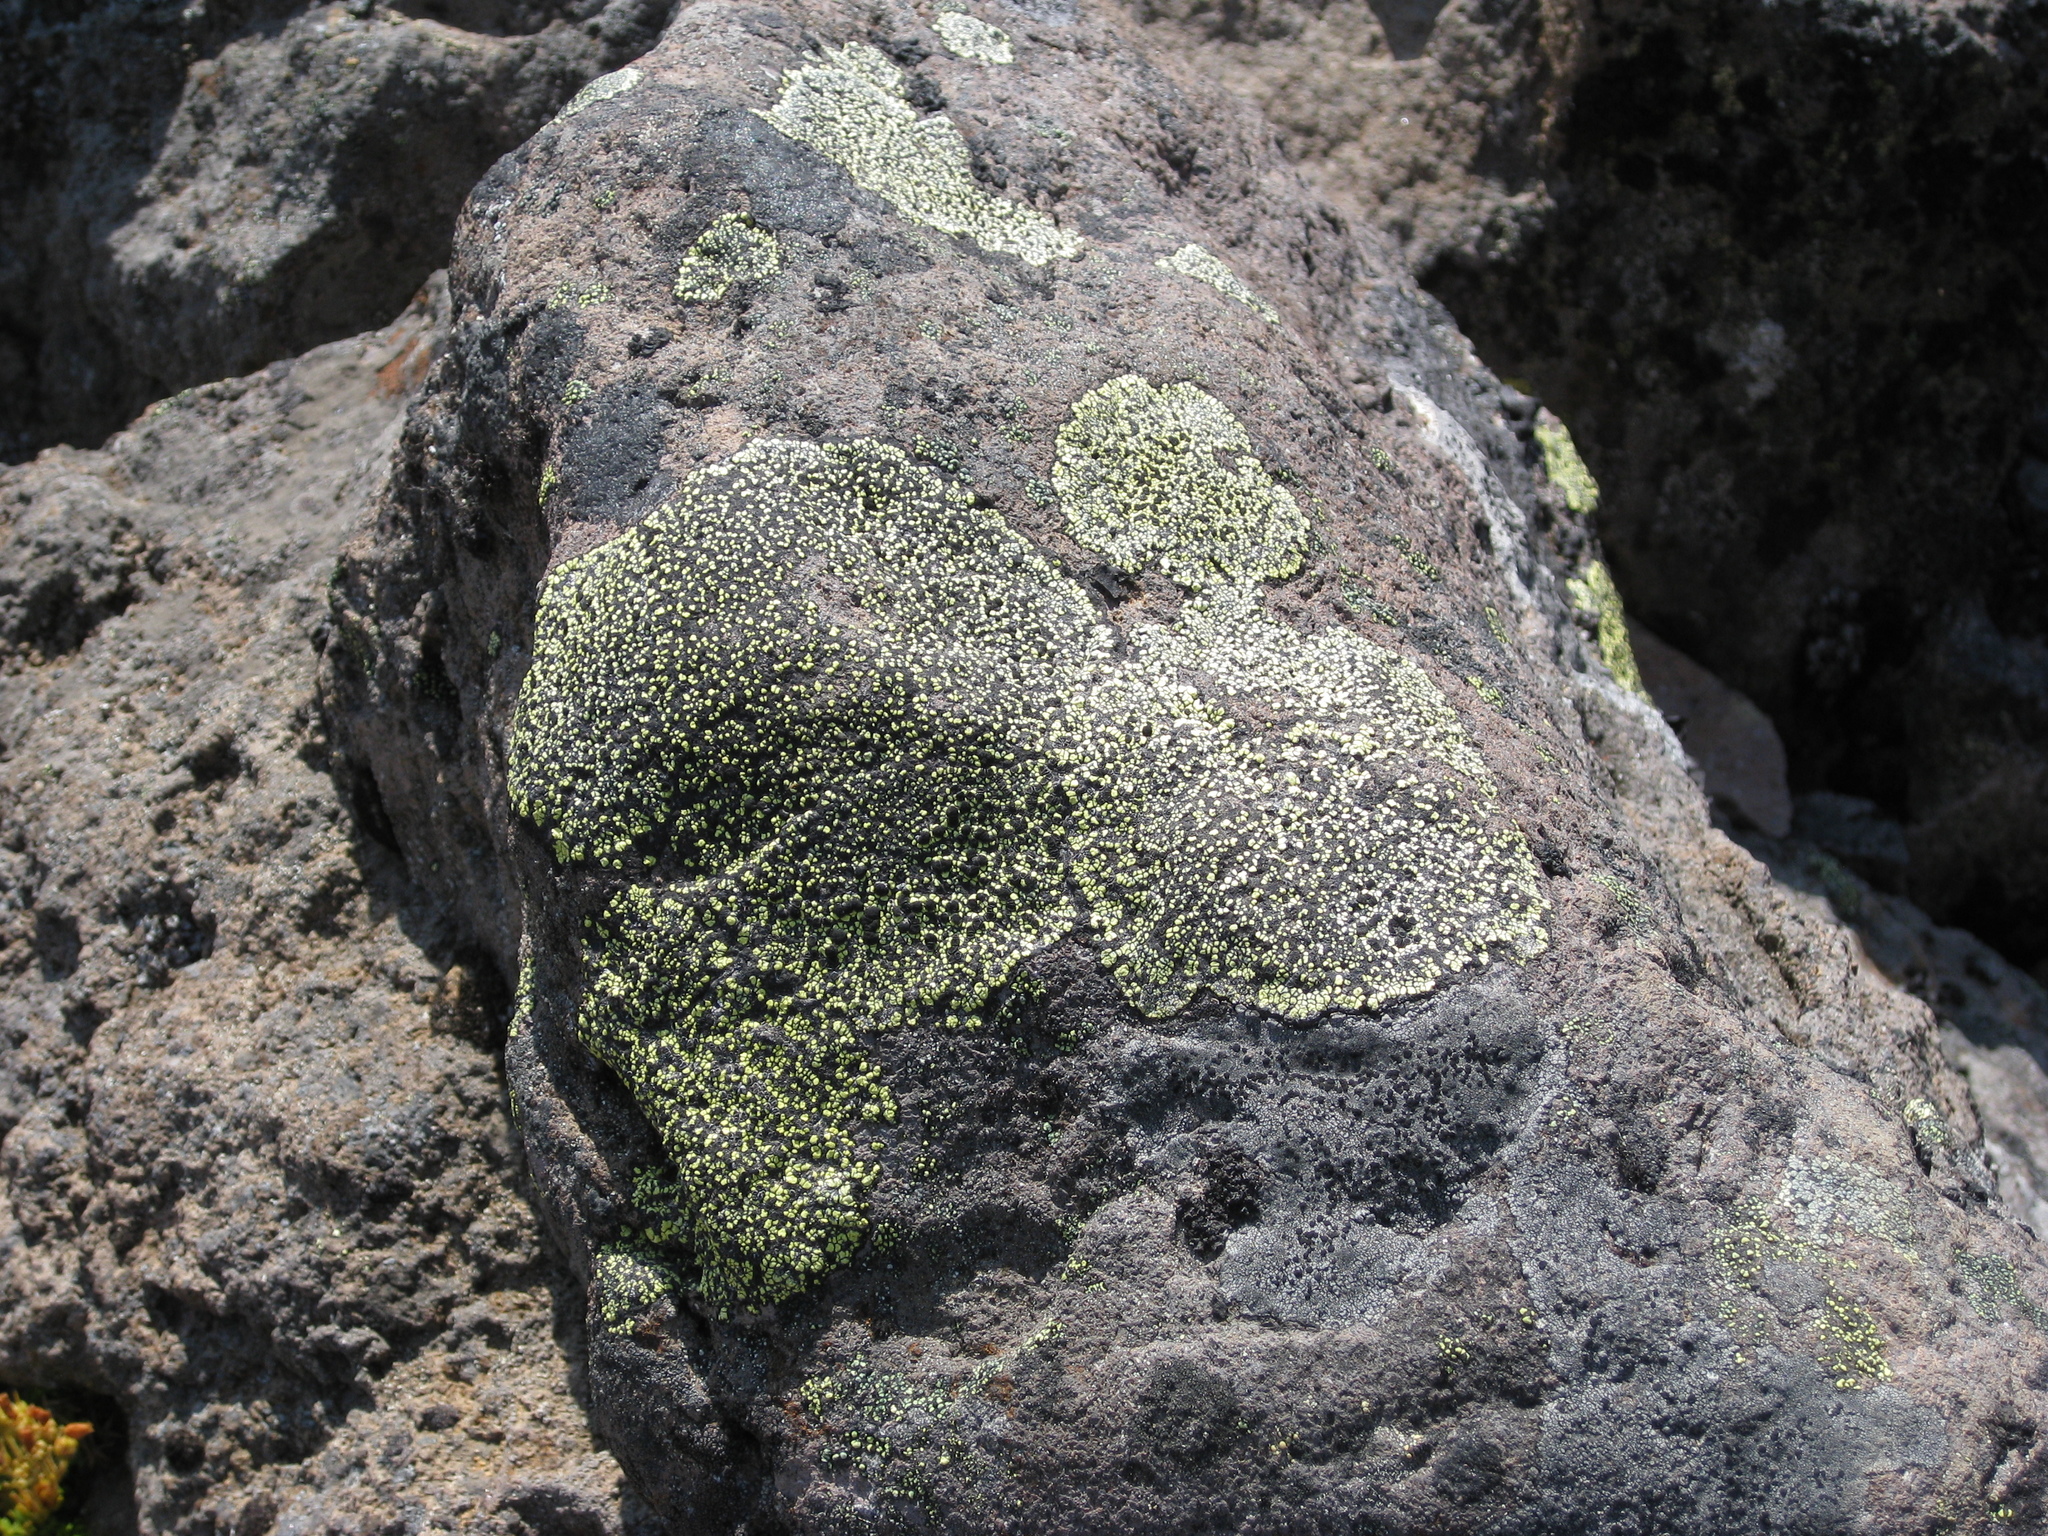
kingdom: Fungi
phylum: Ascomycota
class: Lecanoromycetes
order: Rhizocarpales
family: Rhizocarpaceae
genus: Rhizocarpon
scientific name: Rhizocarpon geographicum
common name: Yellow map lichen
